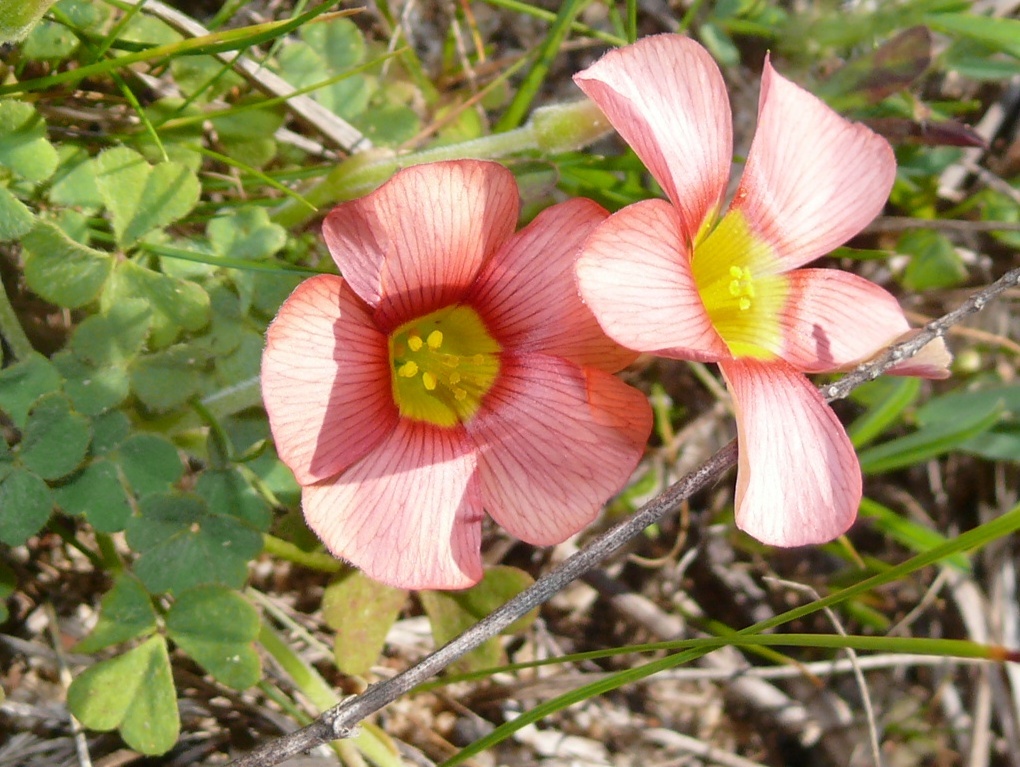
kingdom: Plantae
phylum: Tracheophyta
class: Magnoliopsida
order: Oxalidales
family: Oxalidaceae
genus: Oxalis
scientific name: Oxalis obtusa
